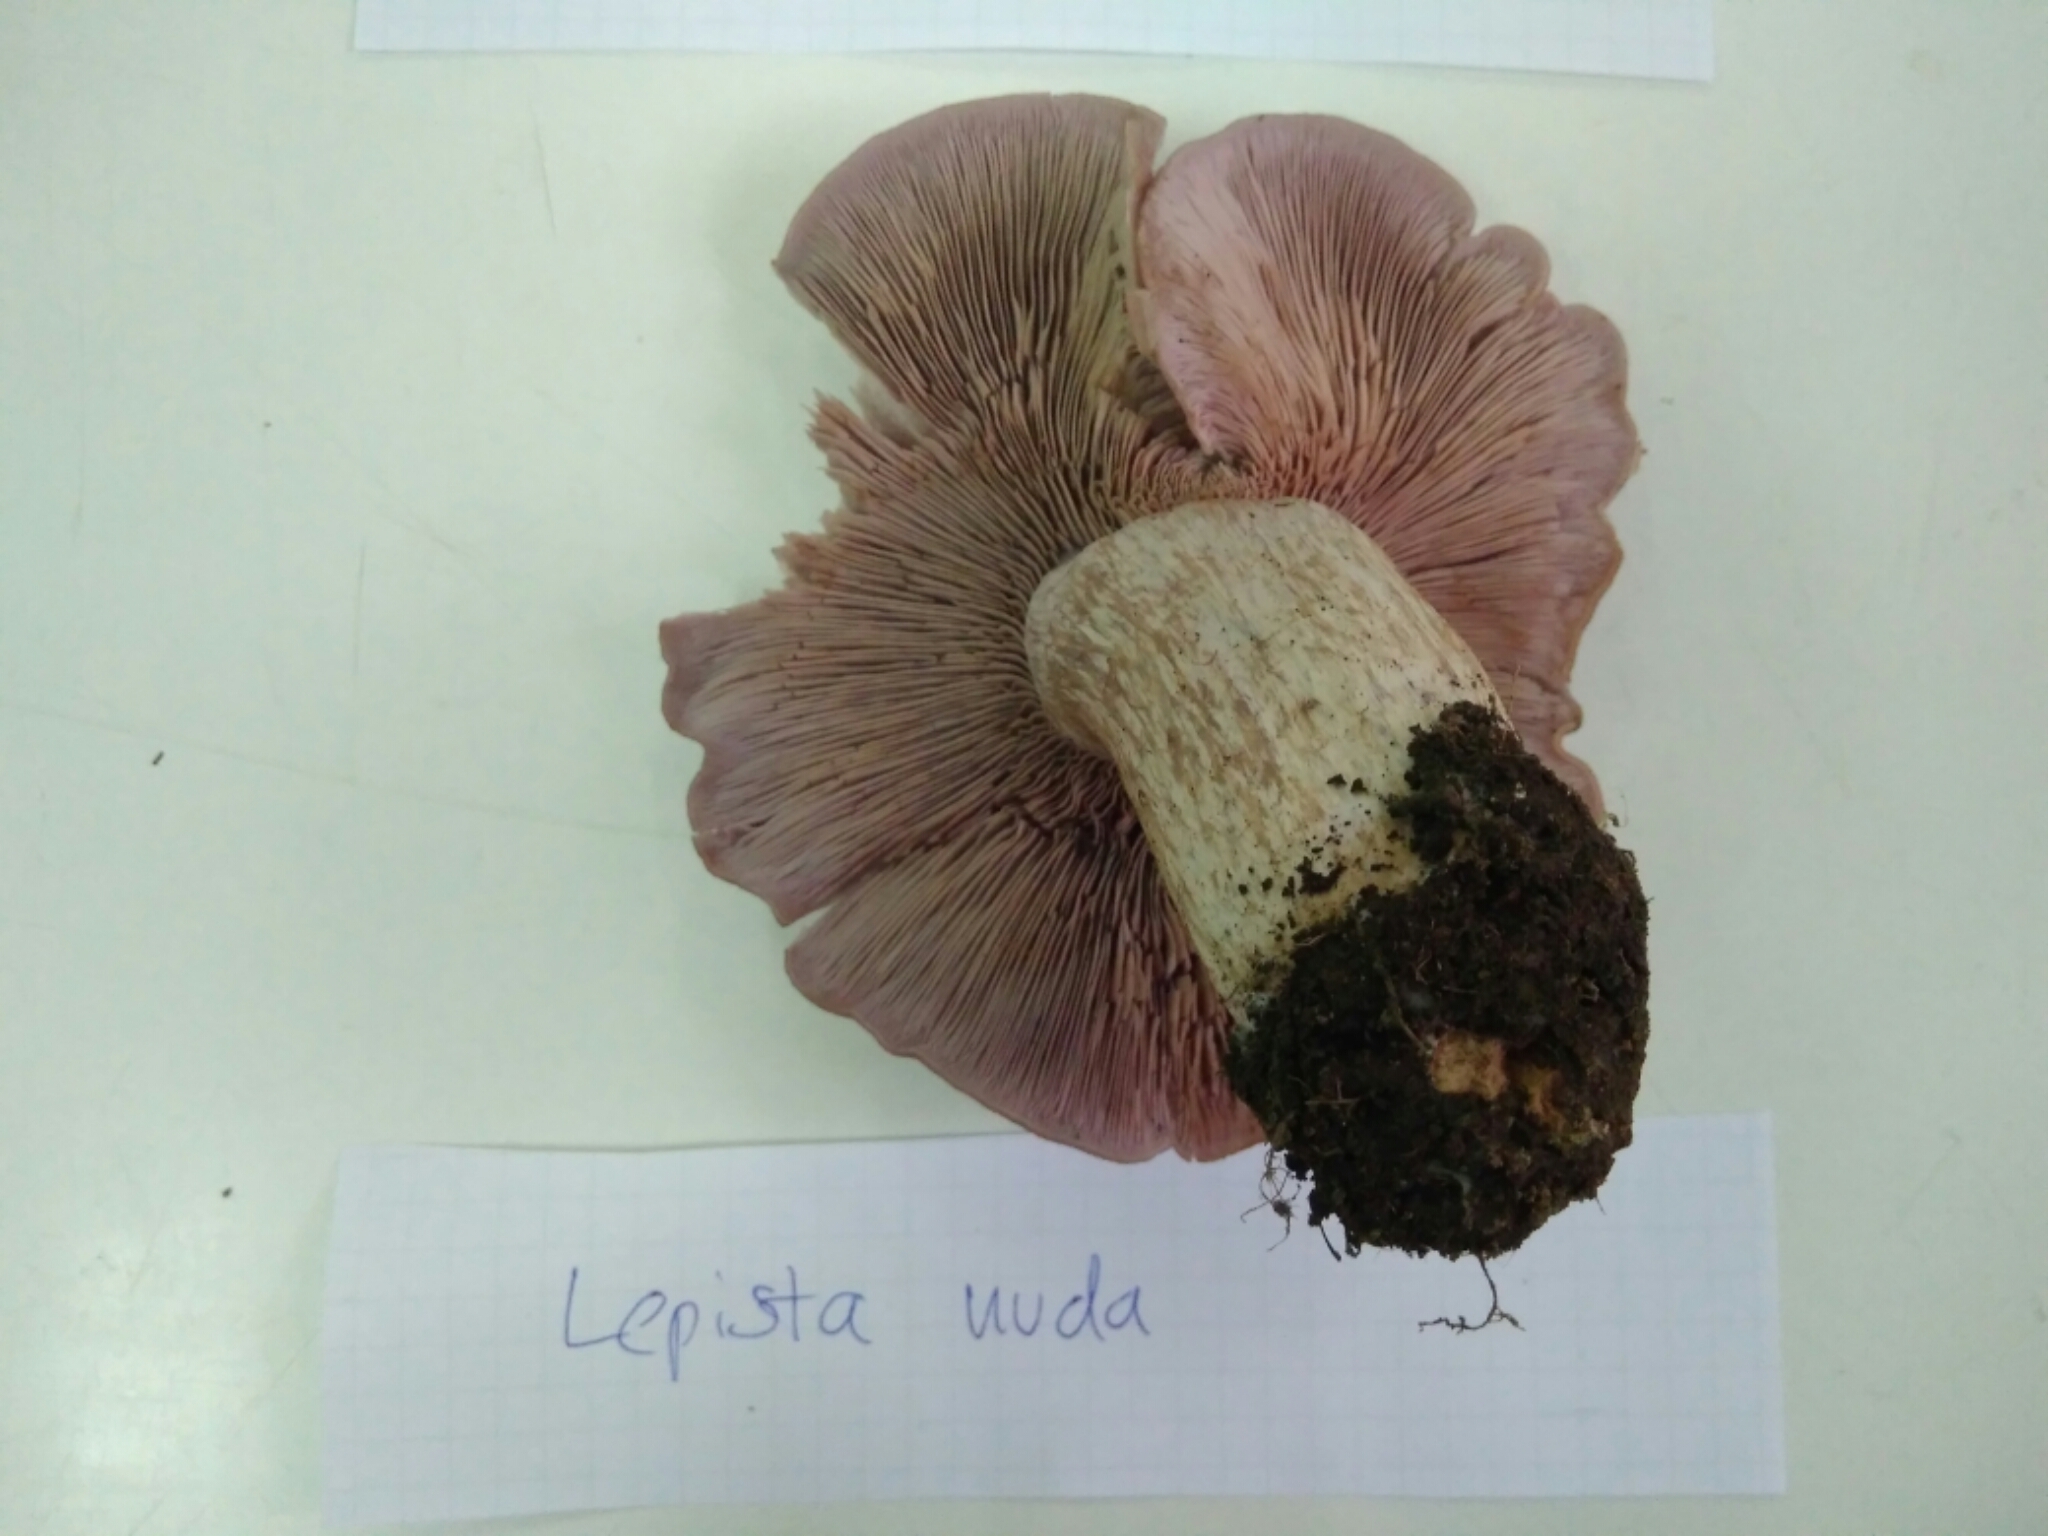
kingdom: Fungi
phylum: Basidiomycota
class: Agaricomycetes
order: Agaricales
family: Tricholomataceae
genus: Collybia
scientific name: Collybia
